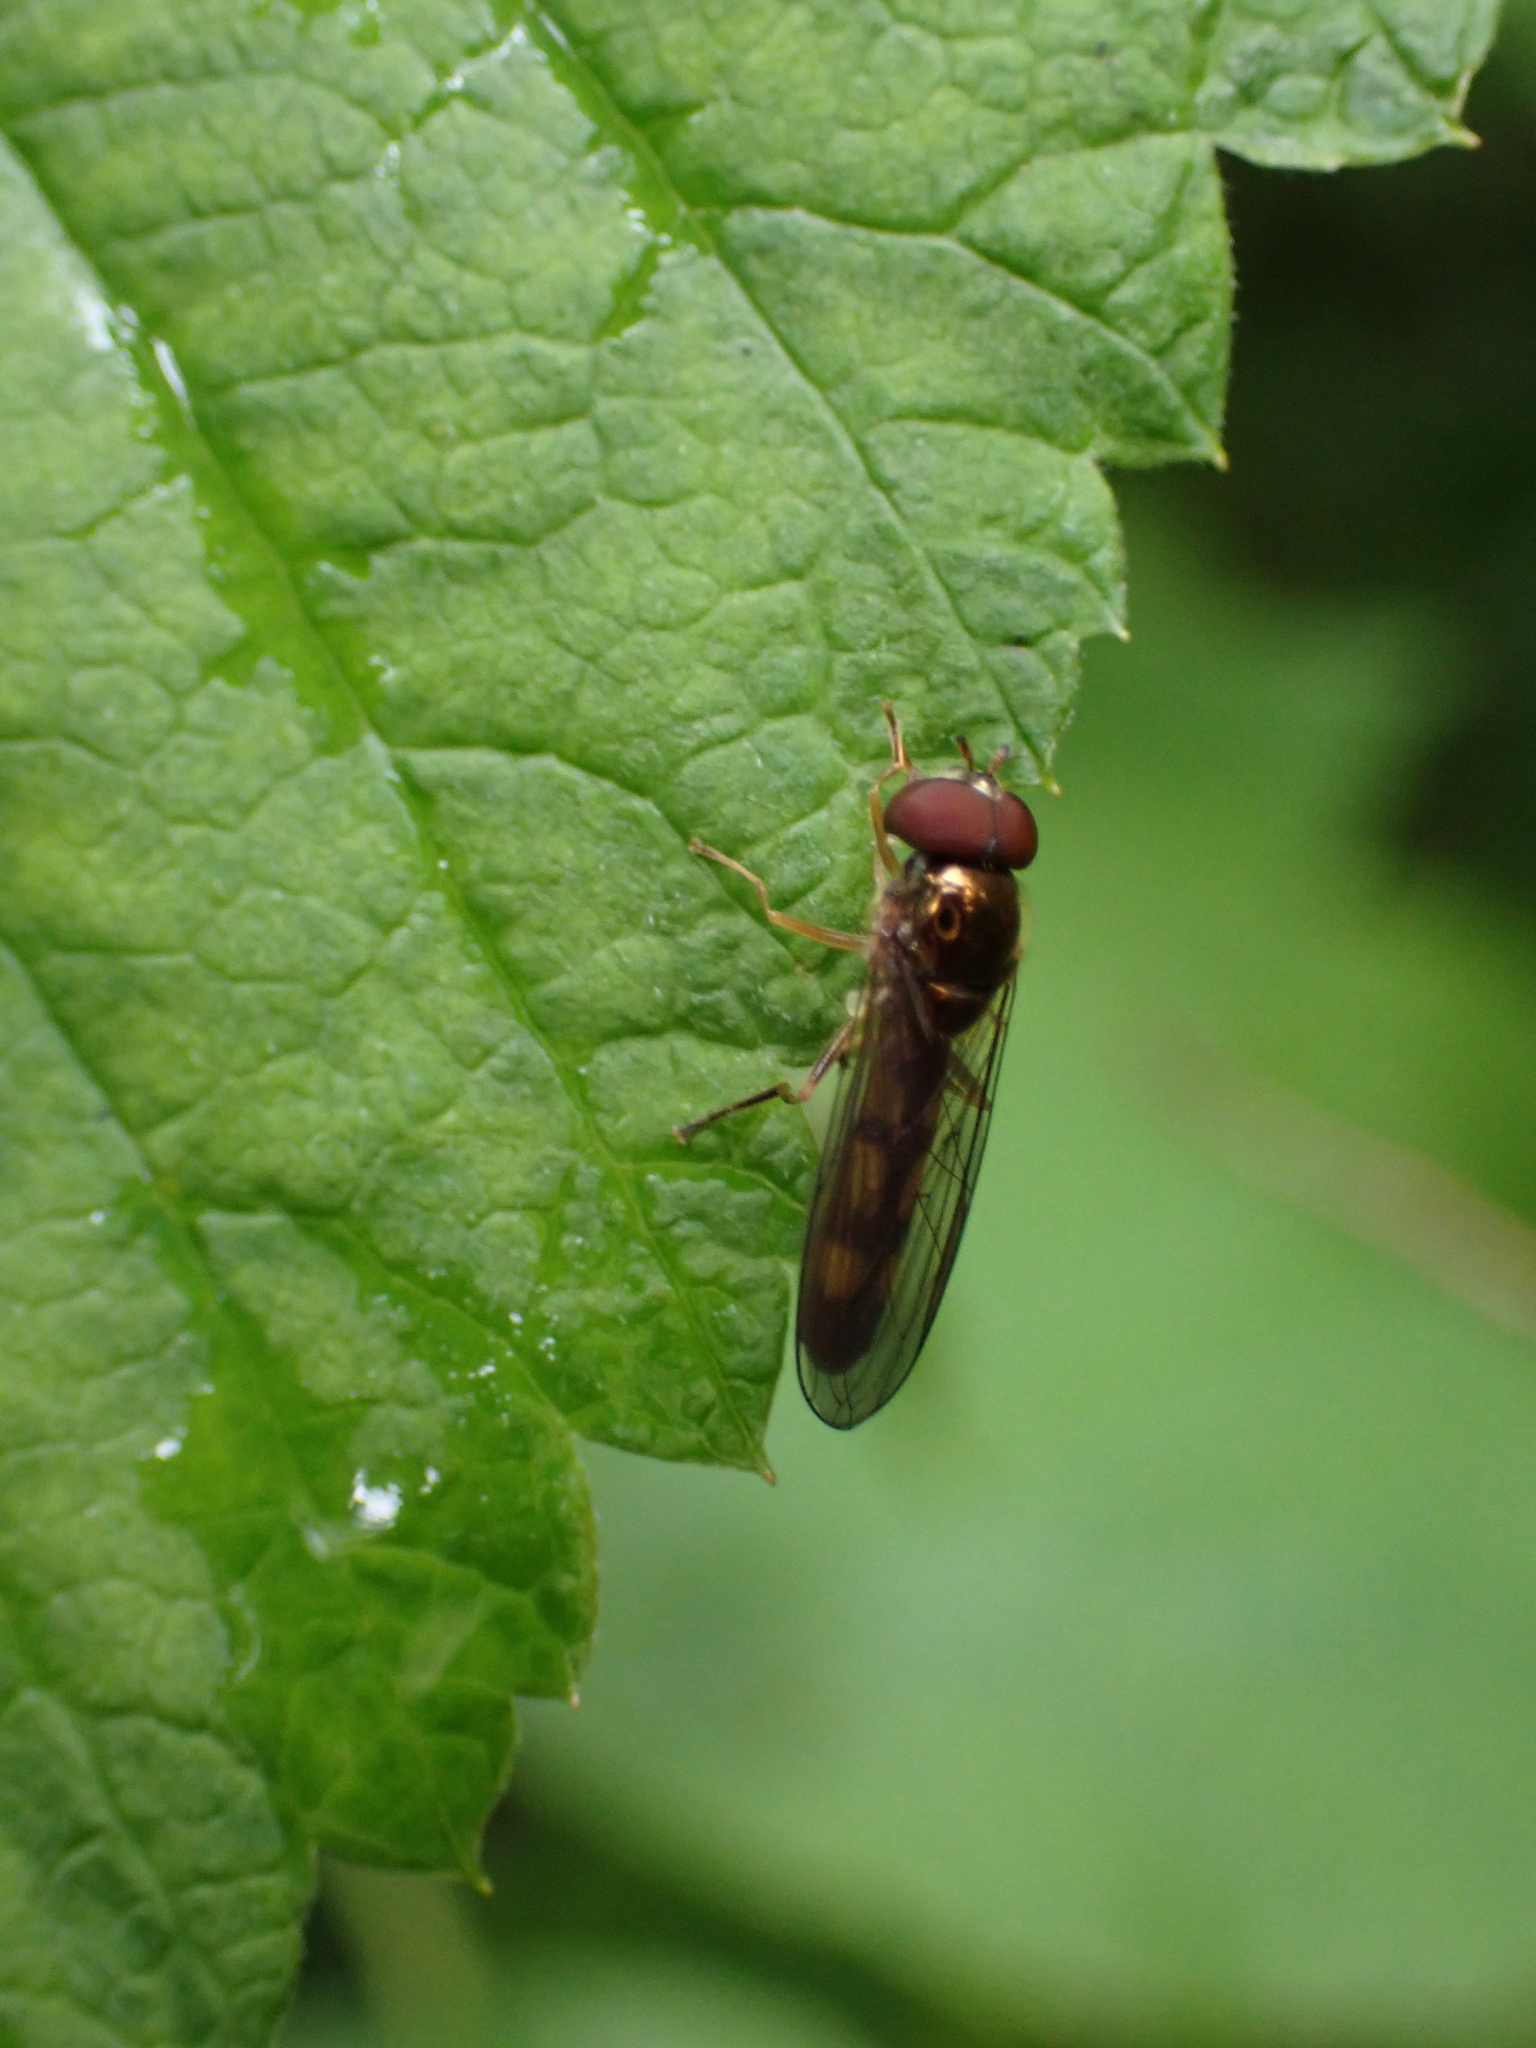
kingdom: Animalia
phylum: Arthropoda
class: Insecta
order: Diptera
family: Syrphidae
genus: Melanostoma
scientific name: Melanostoma scalare
